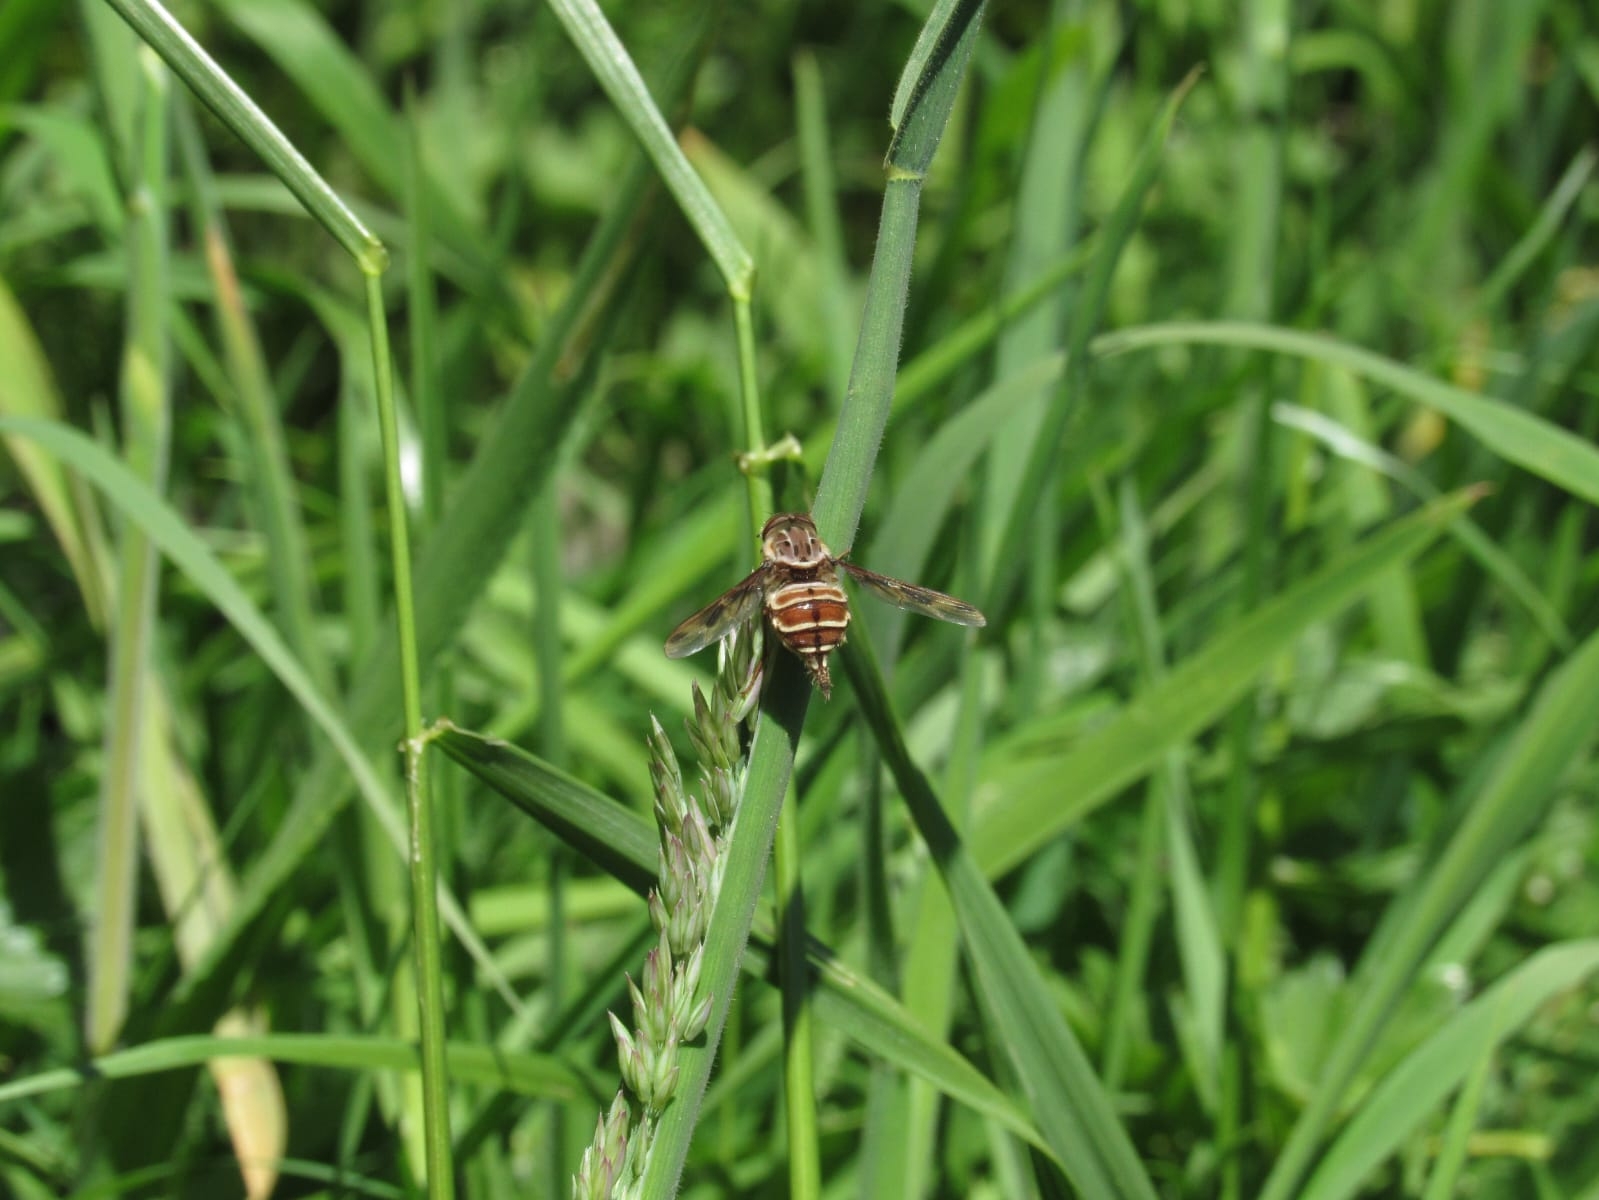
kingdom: Animalia
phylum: Arthropoda
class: Insecta
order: Diptera
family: Nemestrinidae
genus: Trichophthalma
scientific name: Trichophthalma nubipennis
